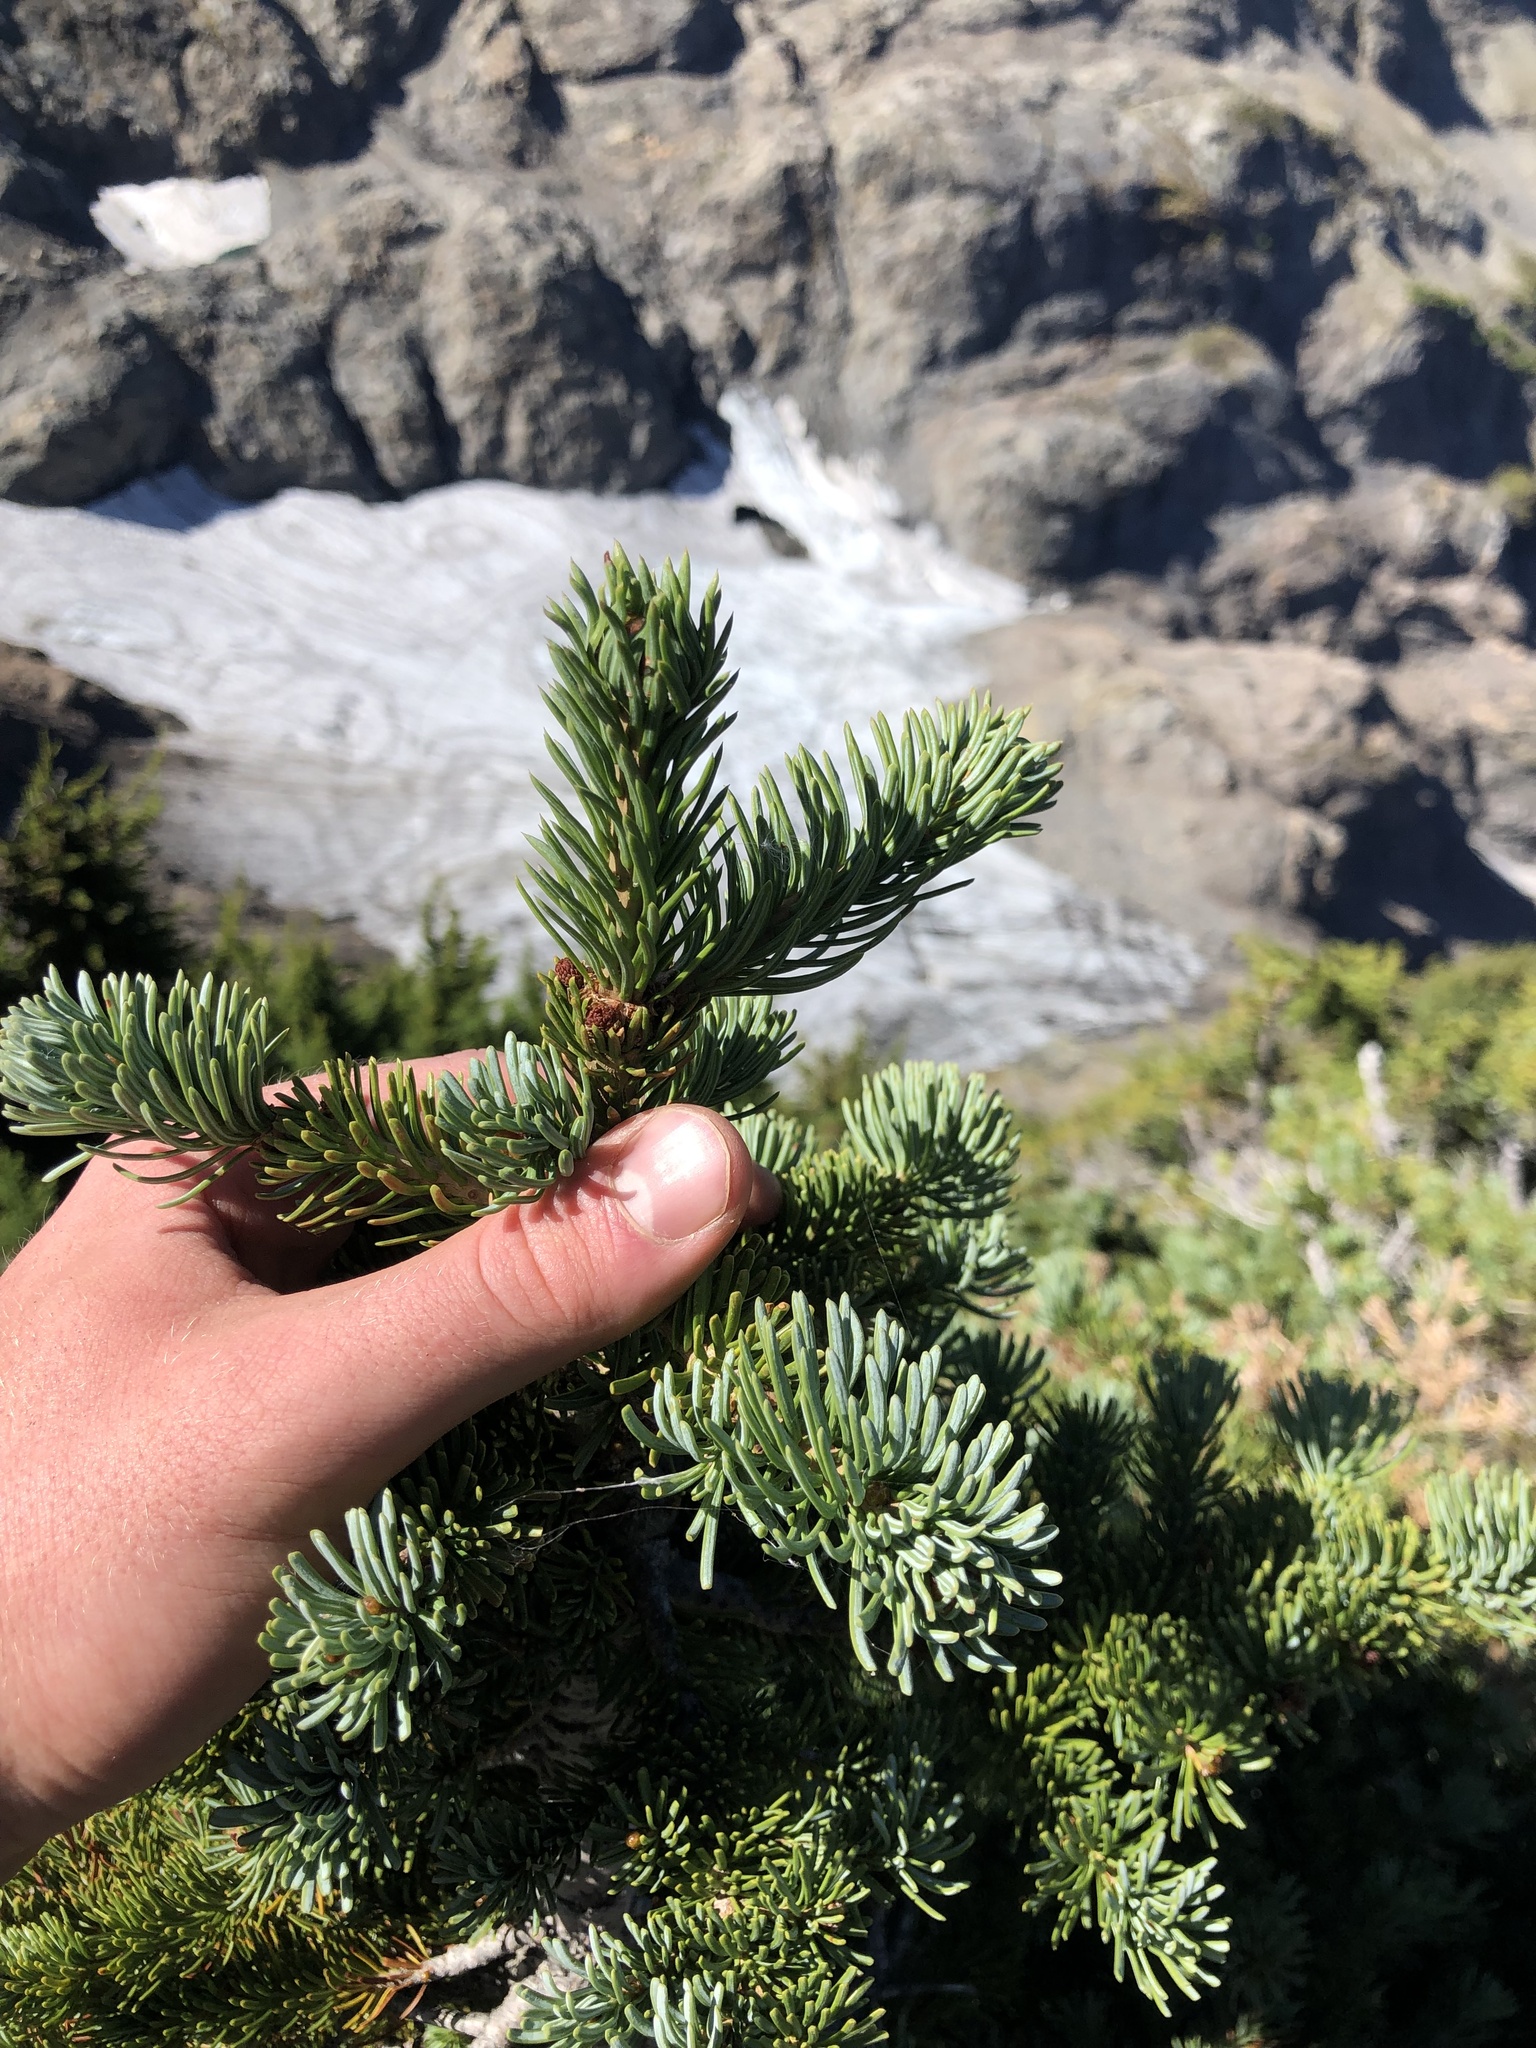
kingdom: Plantae
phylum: Tracheophyta
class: Pinopsida
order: Pinales
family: Pinaceae
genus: Abies
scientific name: Abies lasiocarpa
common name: Subalpine fir
